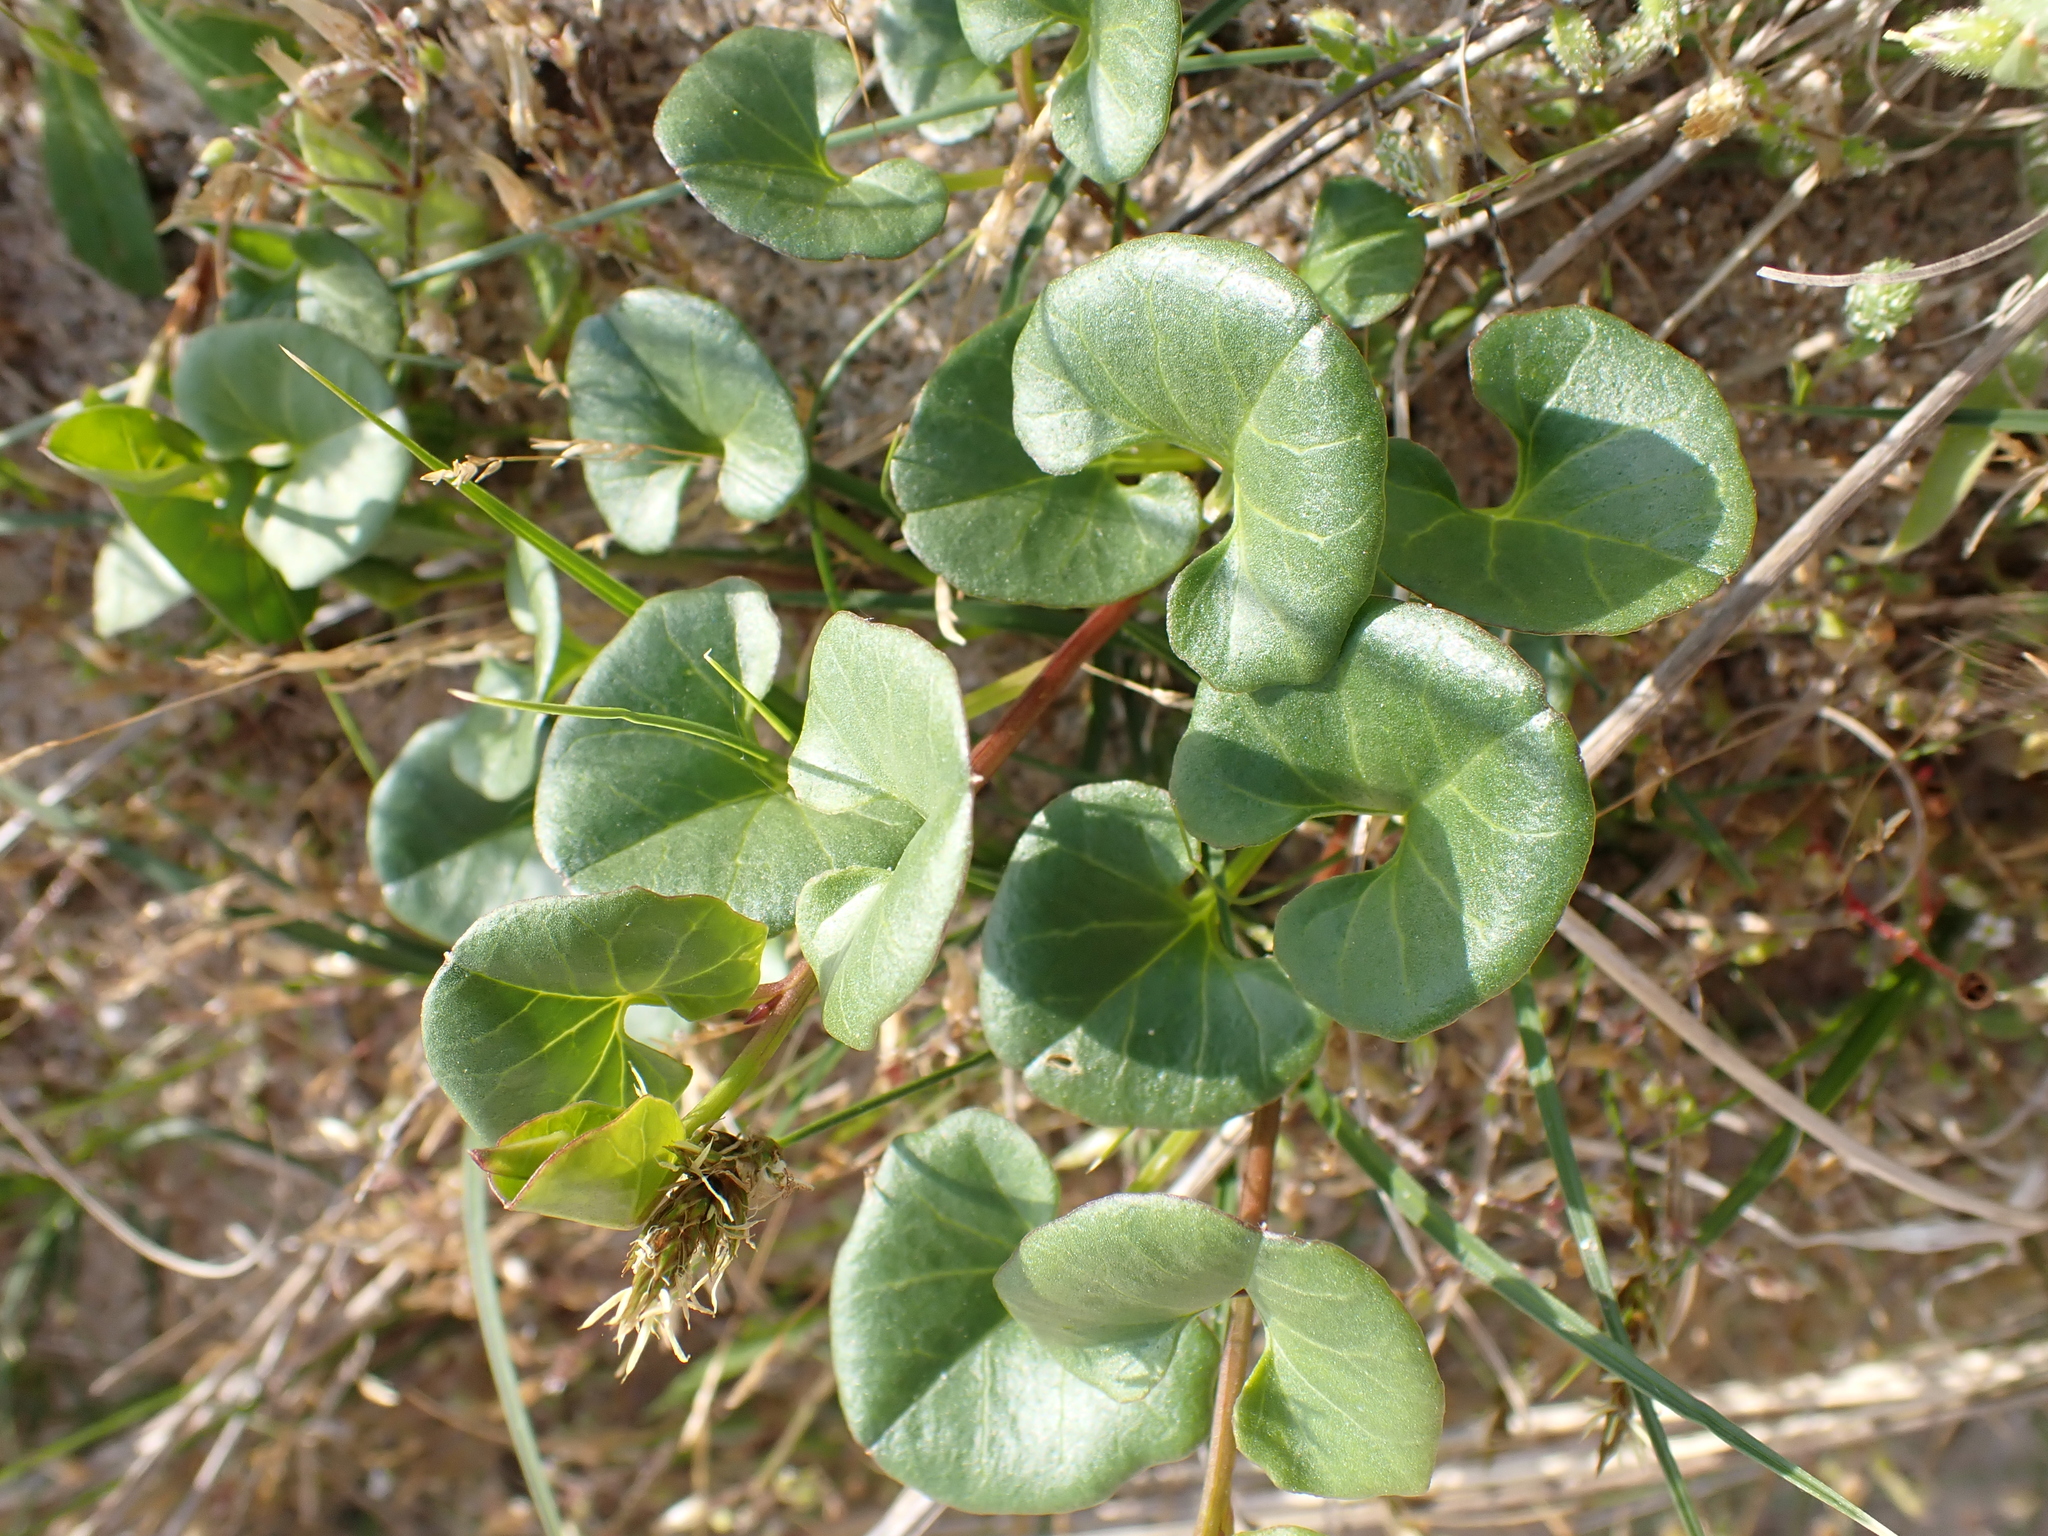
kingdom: Plantae
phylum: Tracheophyta
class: Magnoliopsida
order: Solanales
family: Convolvulaceae
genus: Calystegia
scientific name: Calystegia soldanella
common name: Sea bindweed
